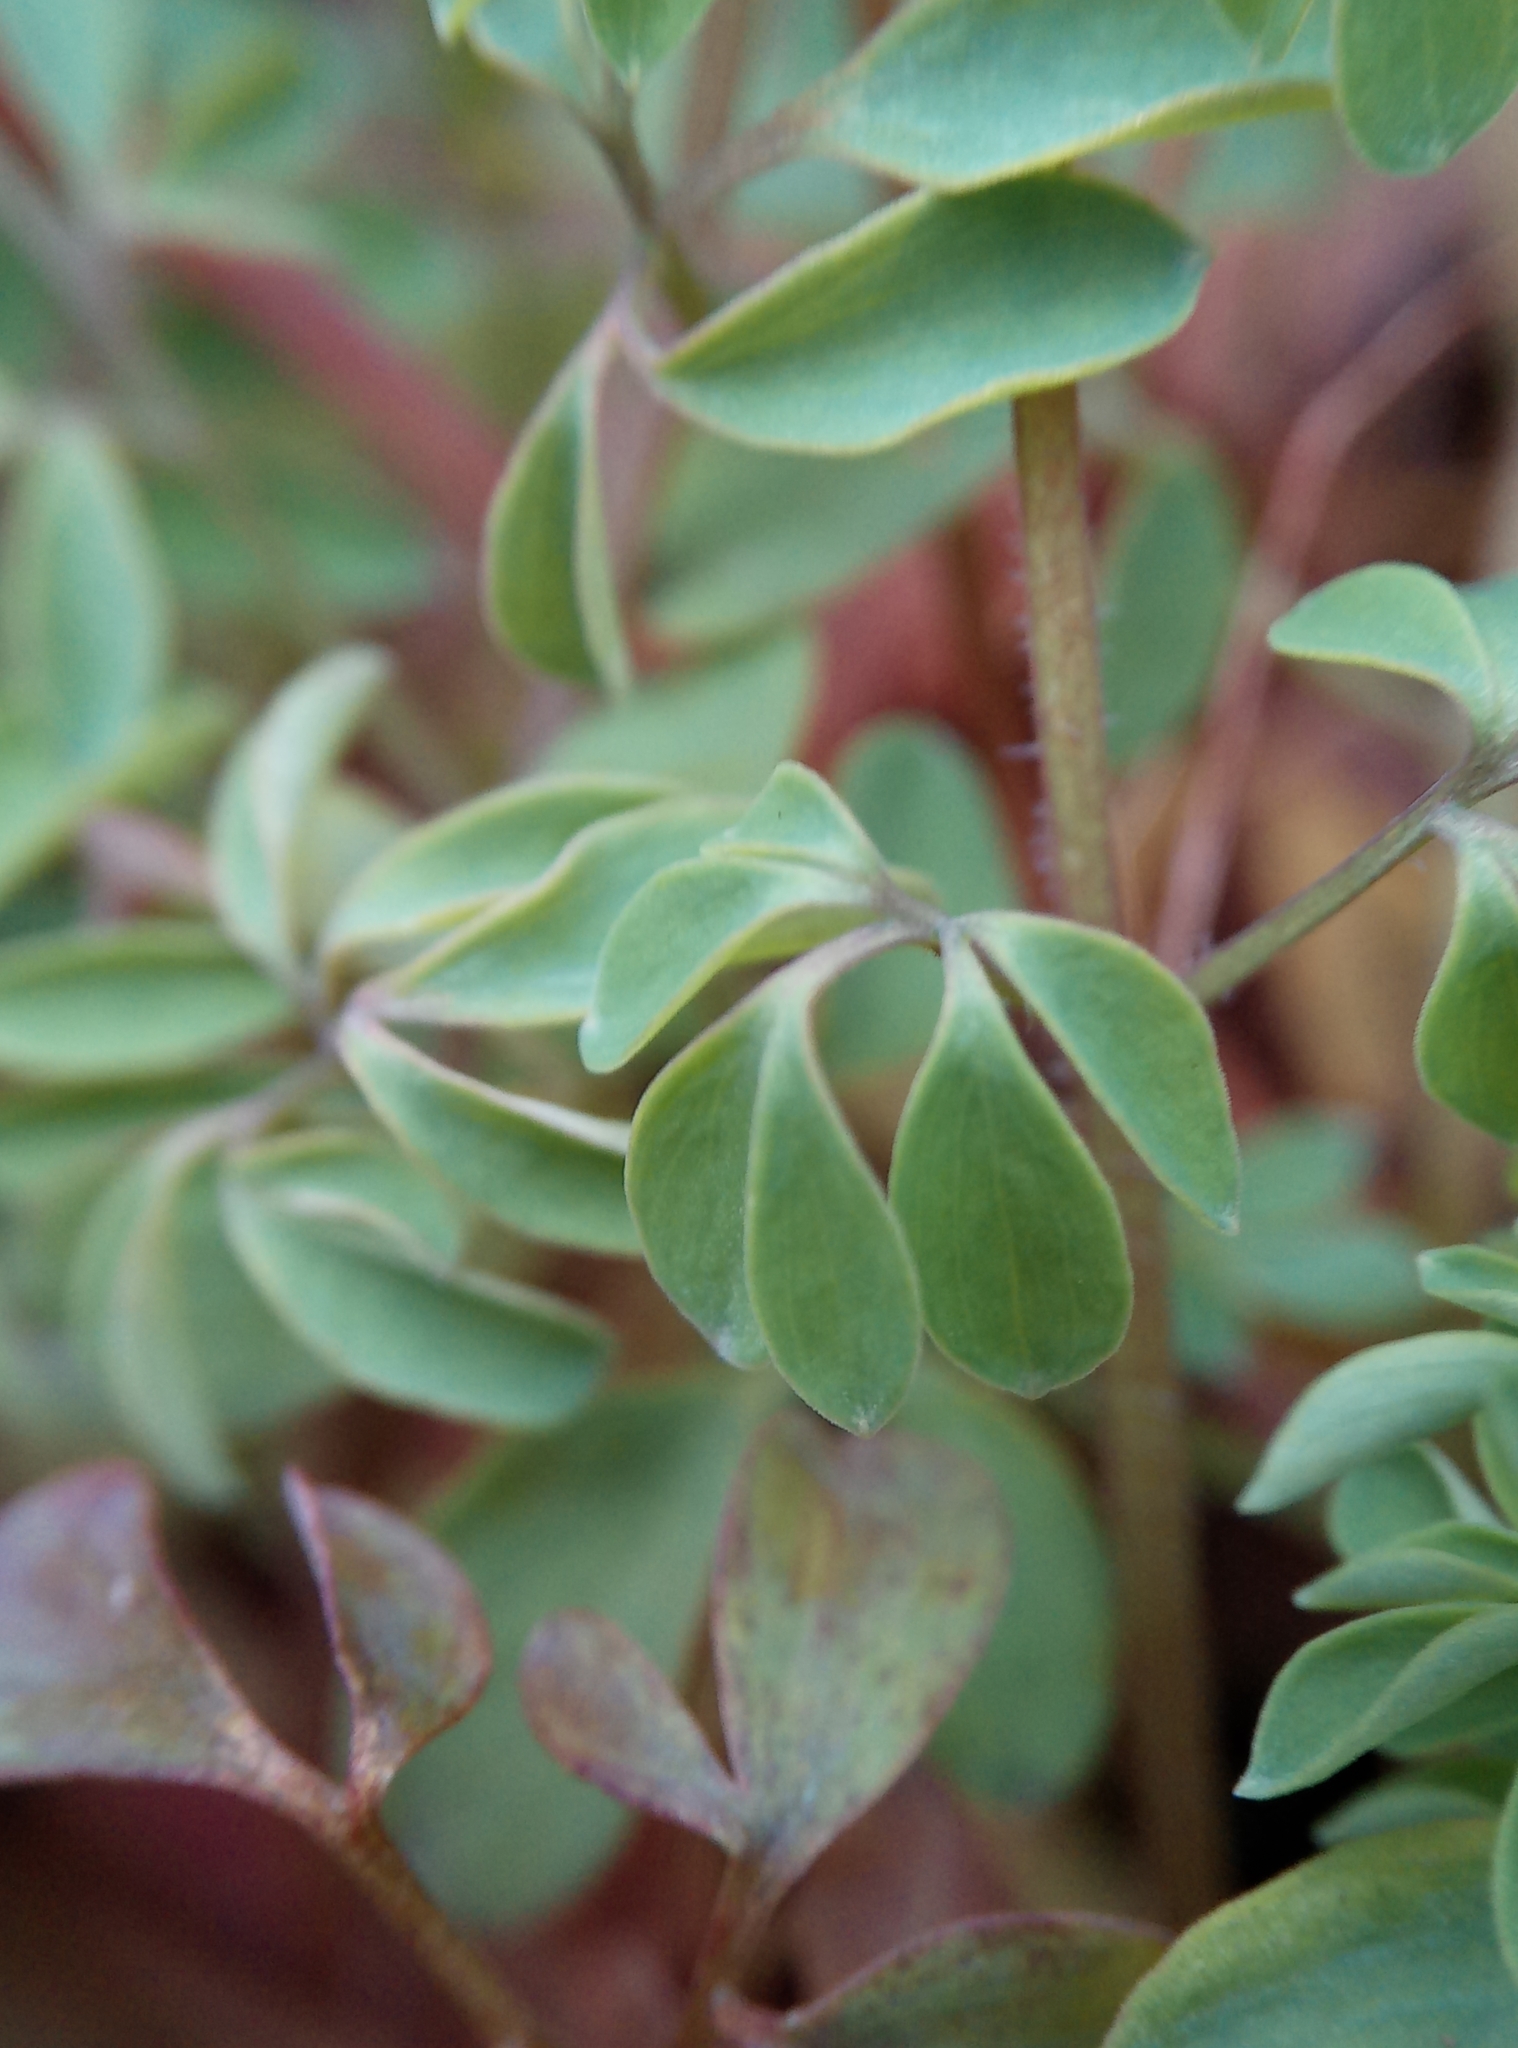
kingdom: Plantae
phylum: Tracheophyta
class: Magnoliopsida
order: Ranunculales
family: Papaveraceae
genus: Ceratocapnos
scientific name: Ceratocapnos claviculata
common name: Climbing corydalis
